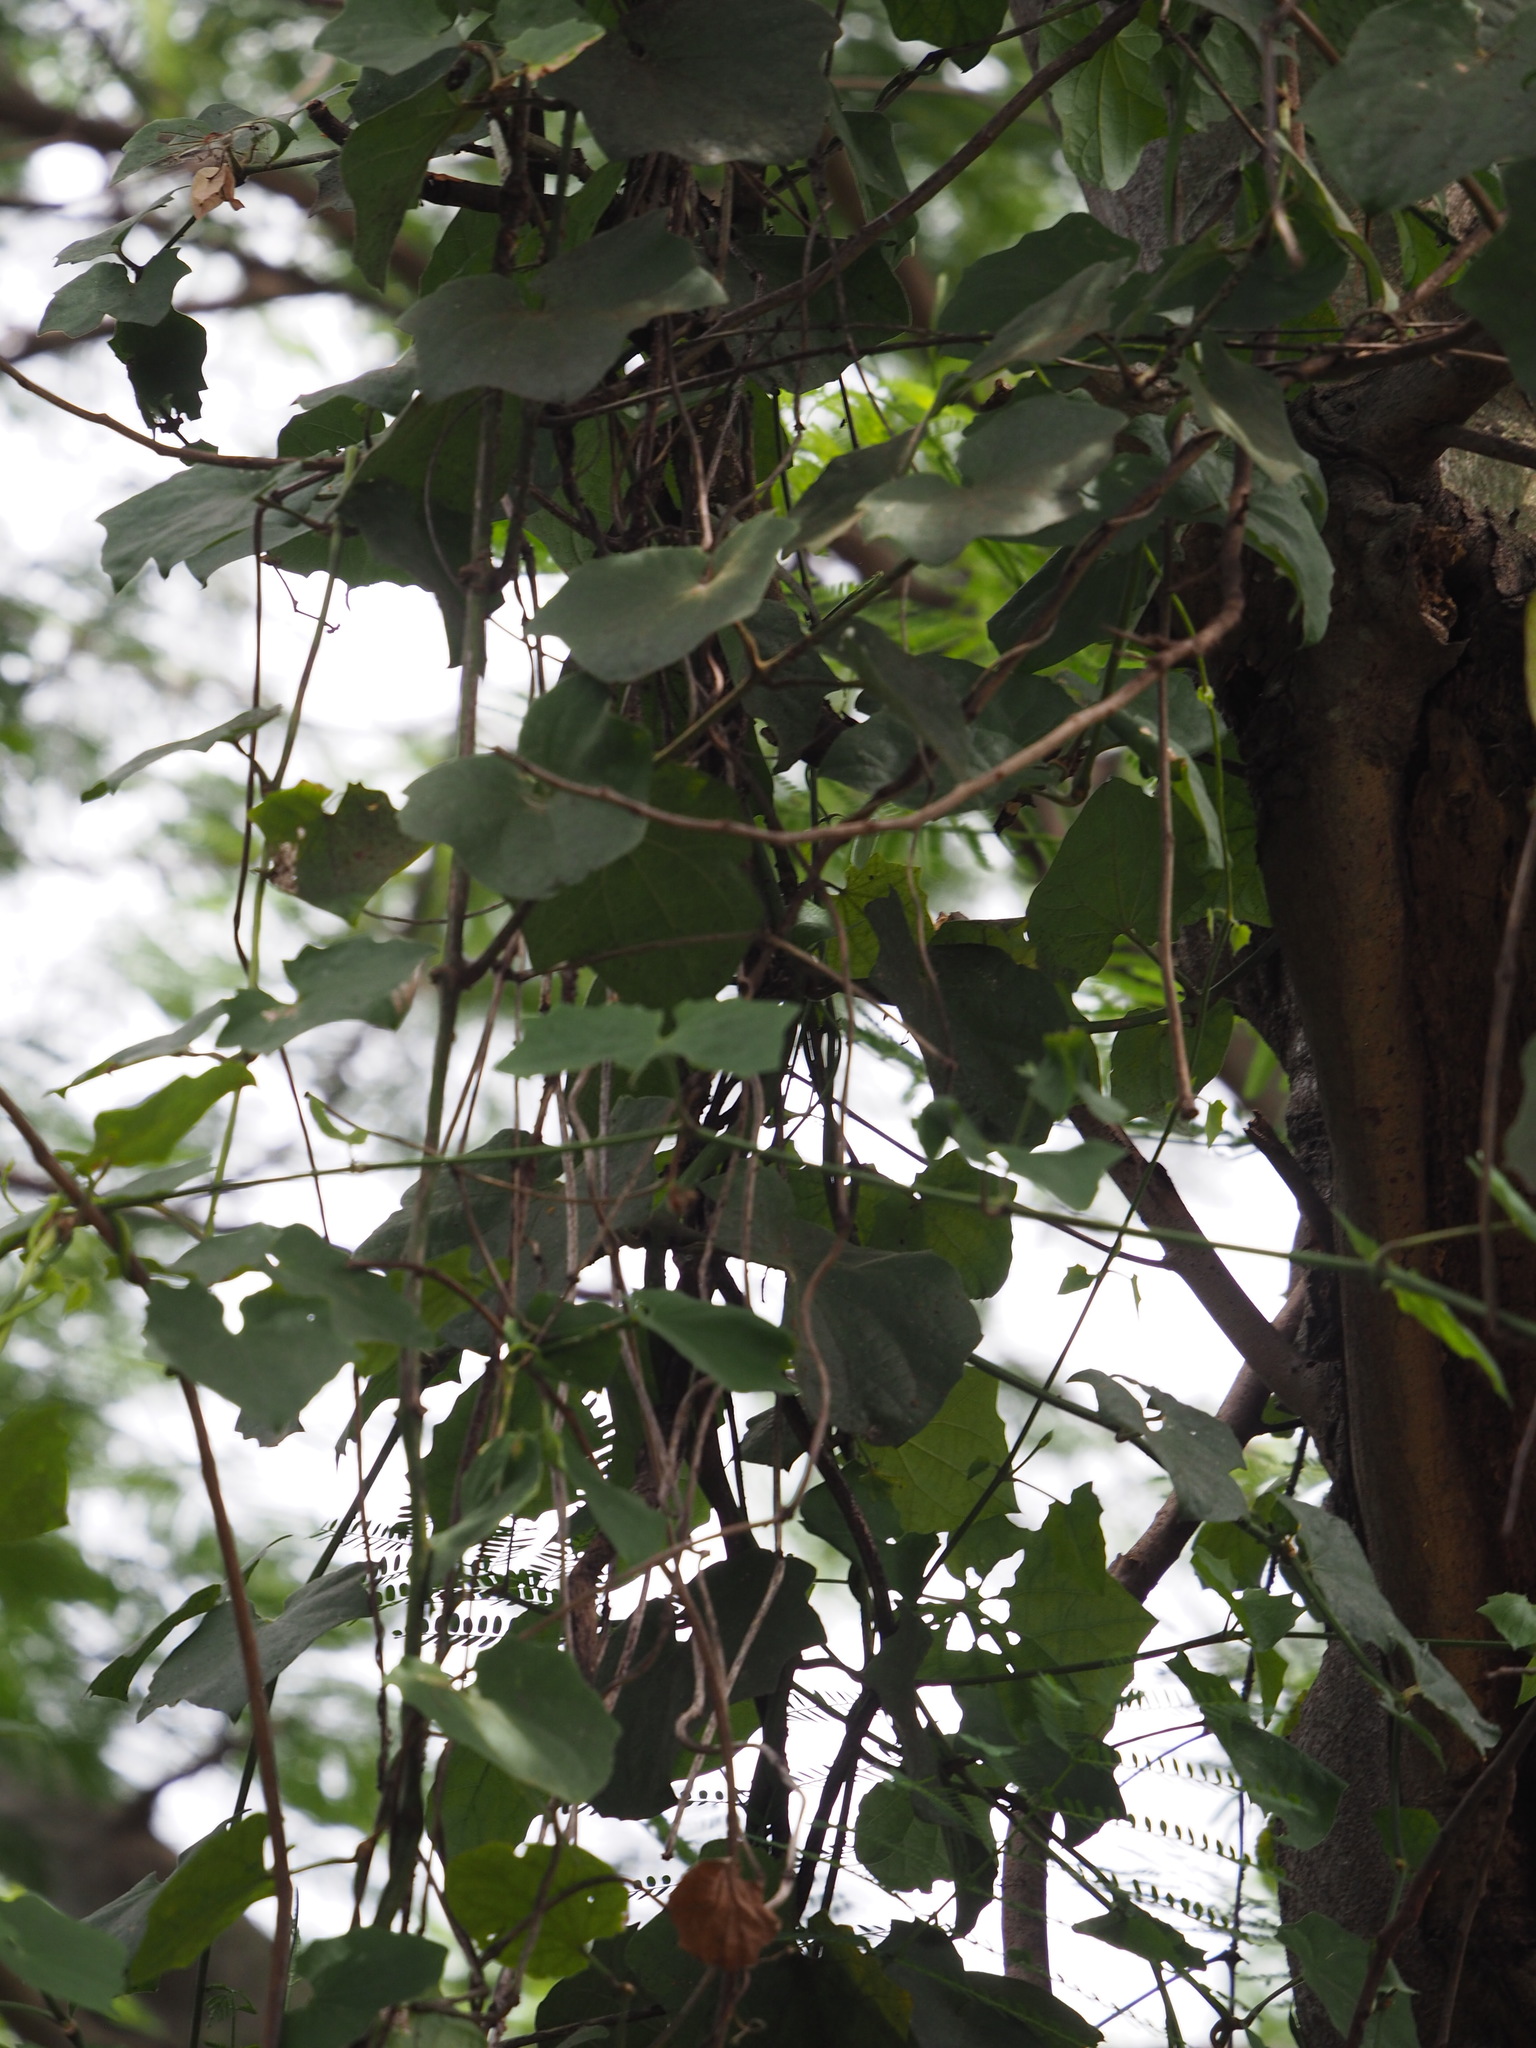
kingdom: Plantae
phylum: Tracheophyta
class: Magnoliopsida
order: Lamiales
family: Acanthaceae
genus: Thunbergia
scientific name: Thunbergia grandiflora
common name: Bengal trumpet
